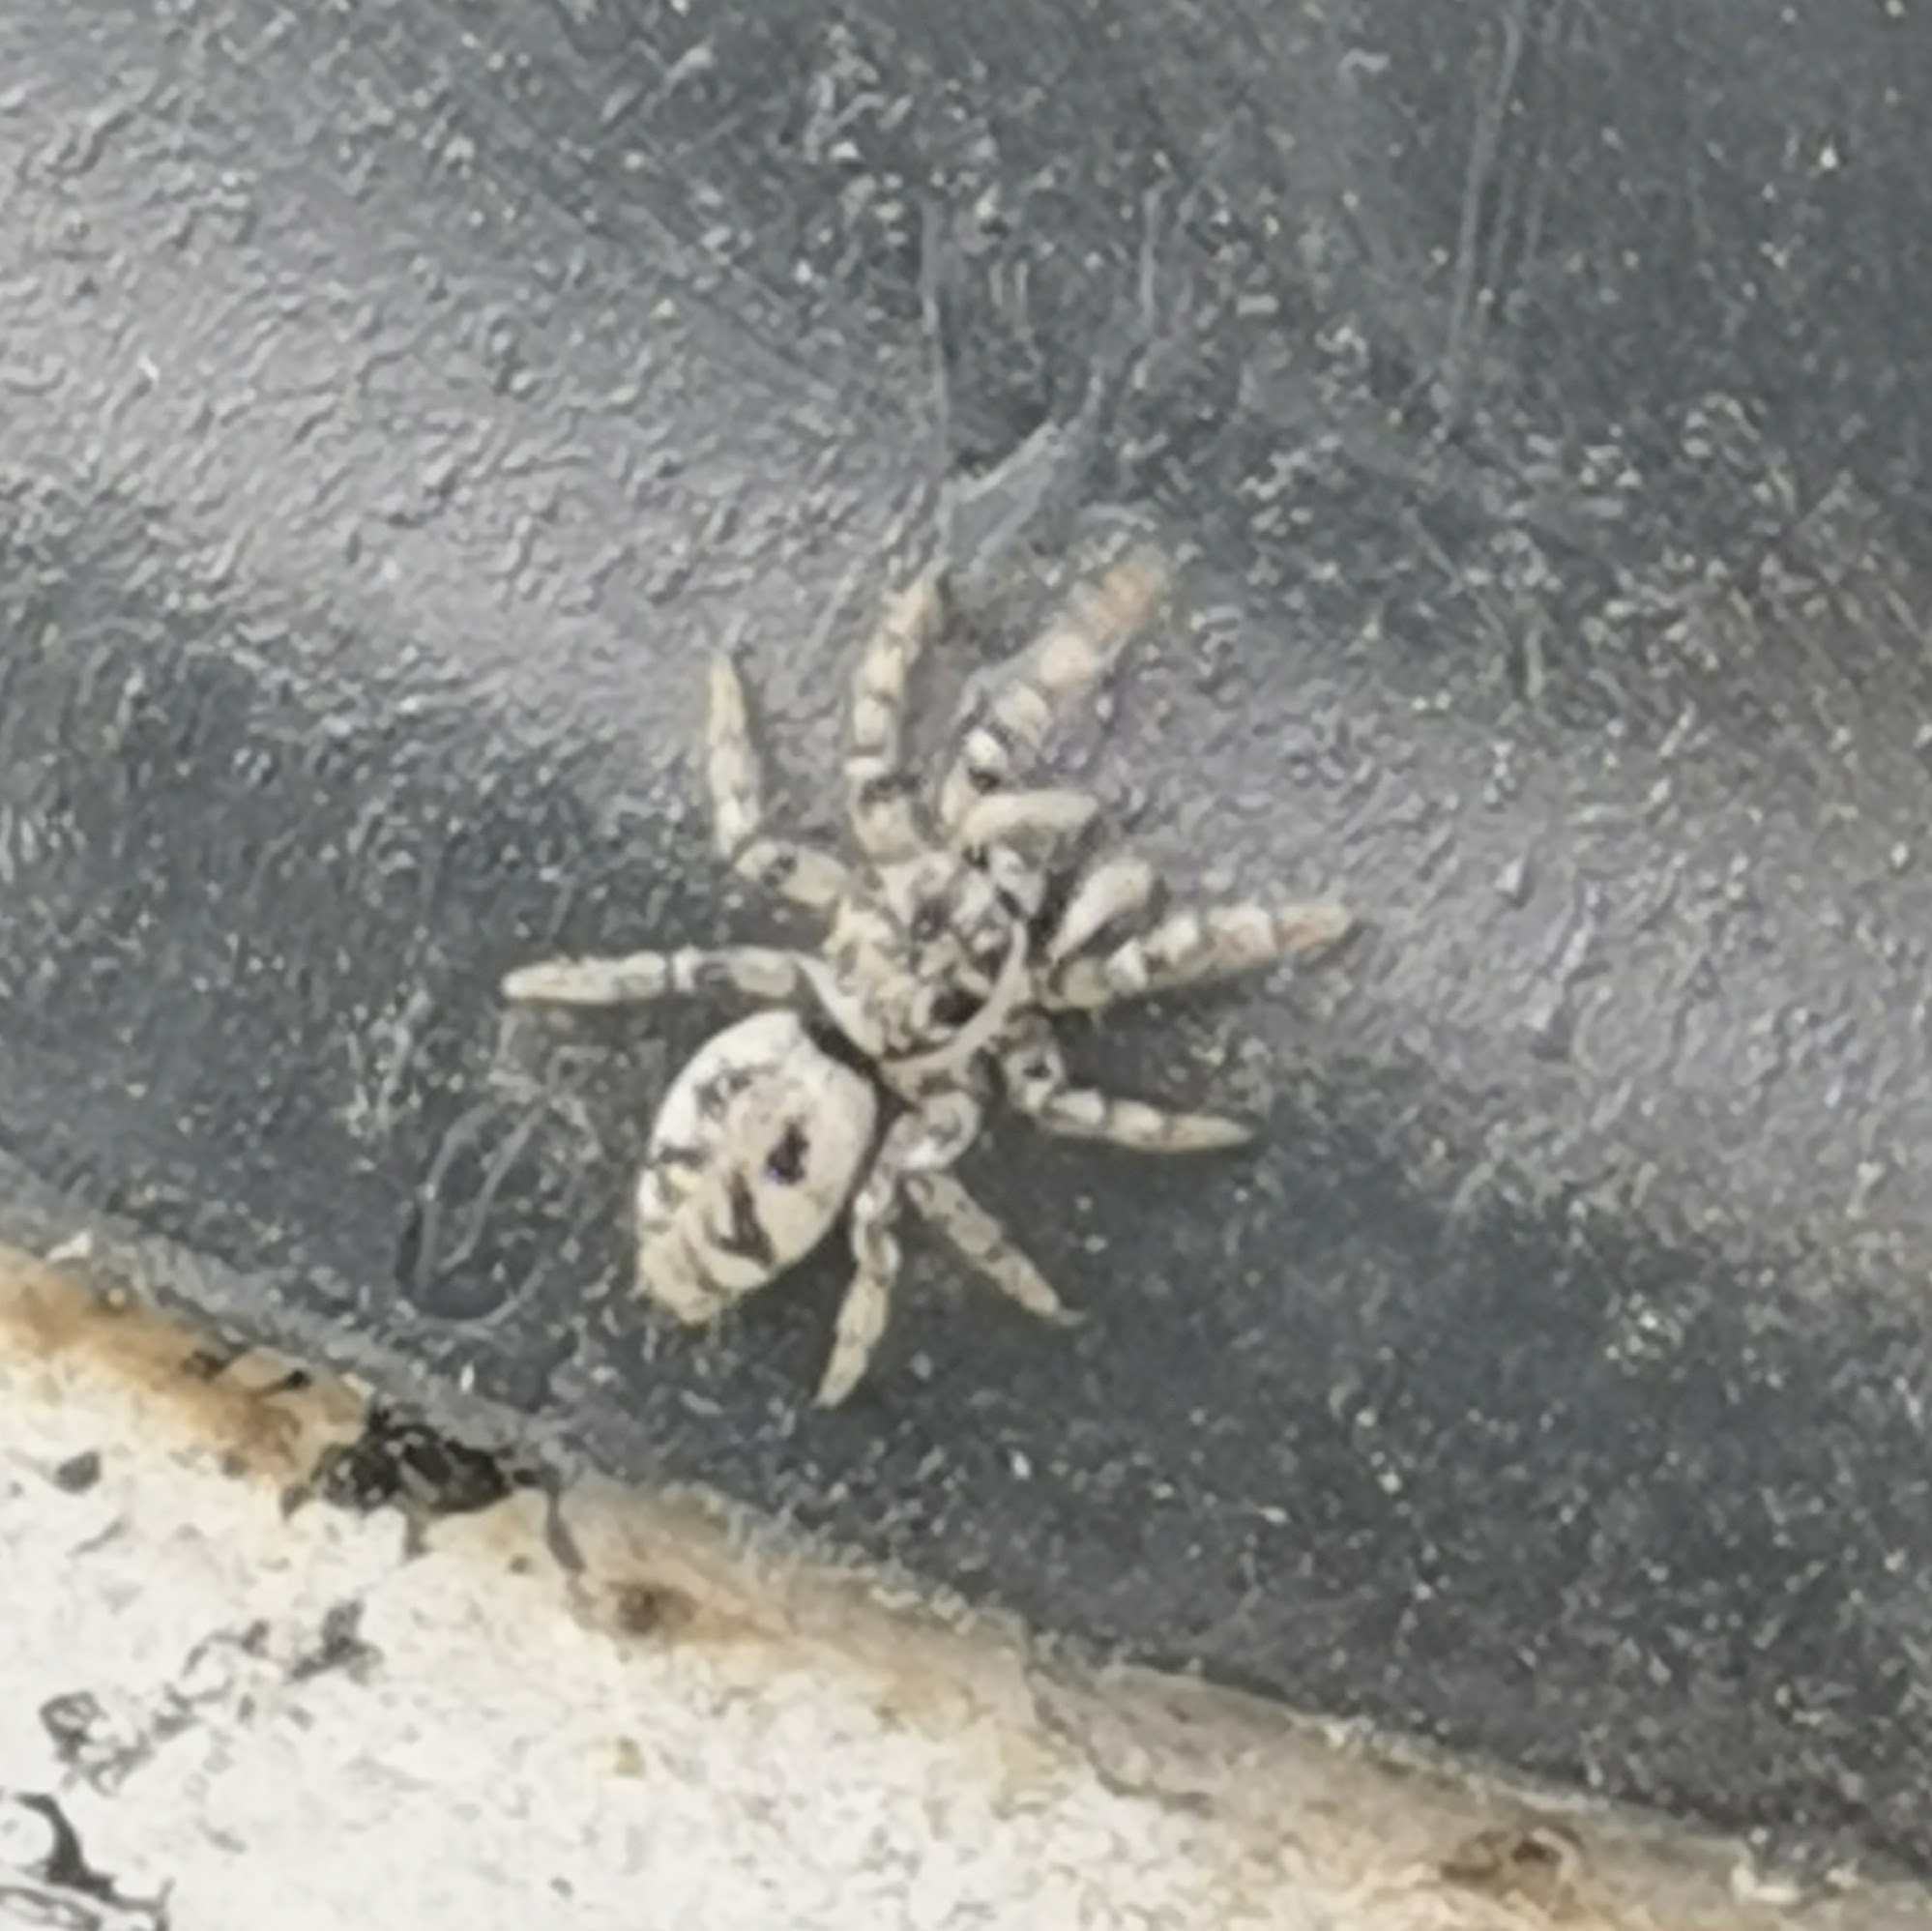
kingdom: Animalia
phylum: Arthropoda
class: Arachnida
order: Araneae
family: Salticidae
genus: Salticus
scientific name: Salticus cingulatus
